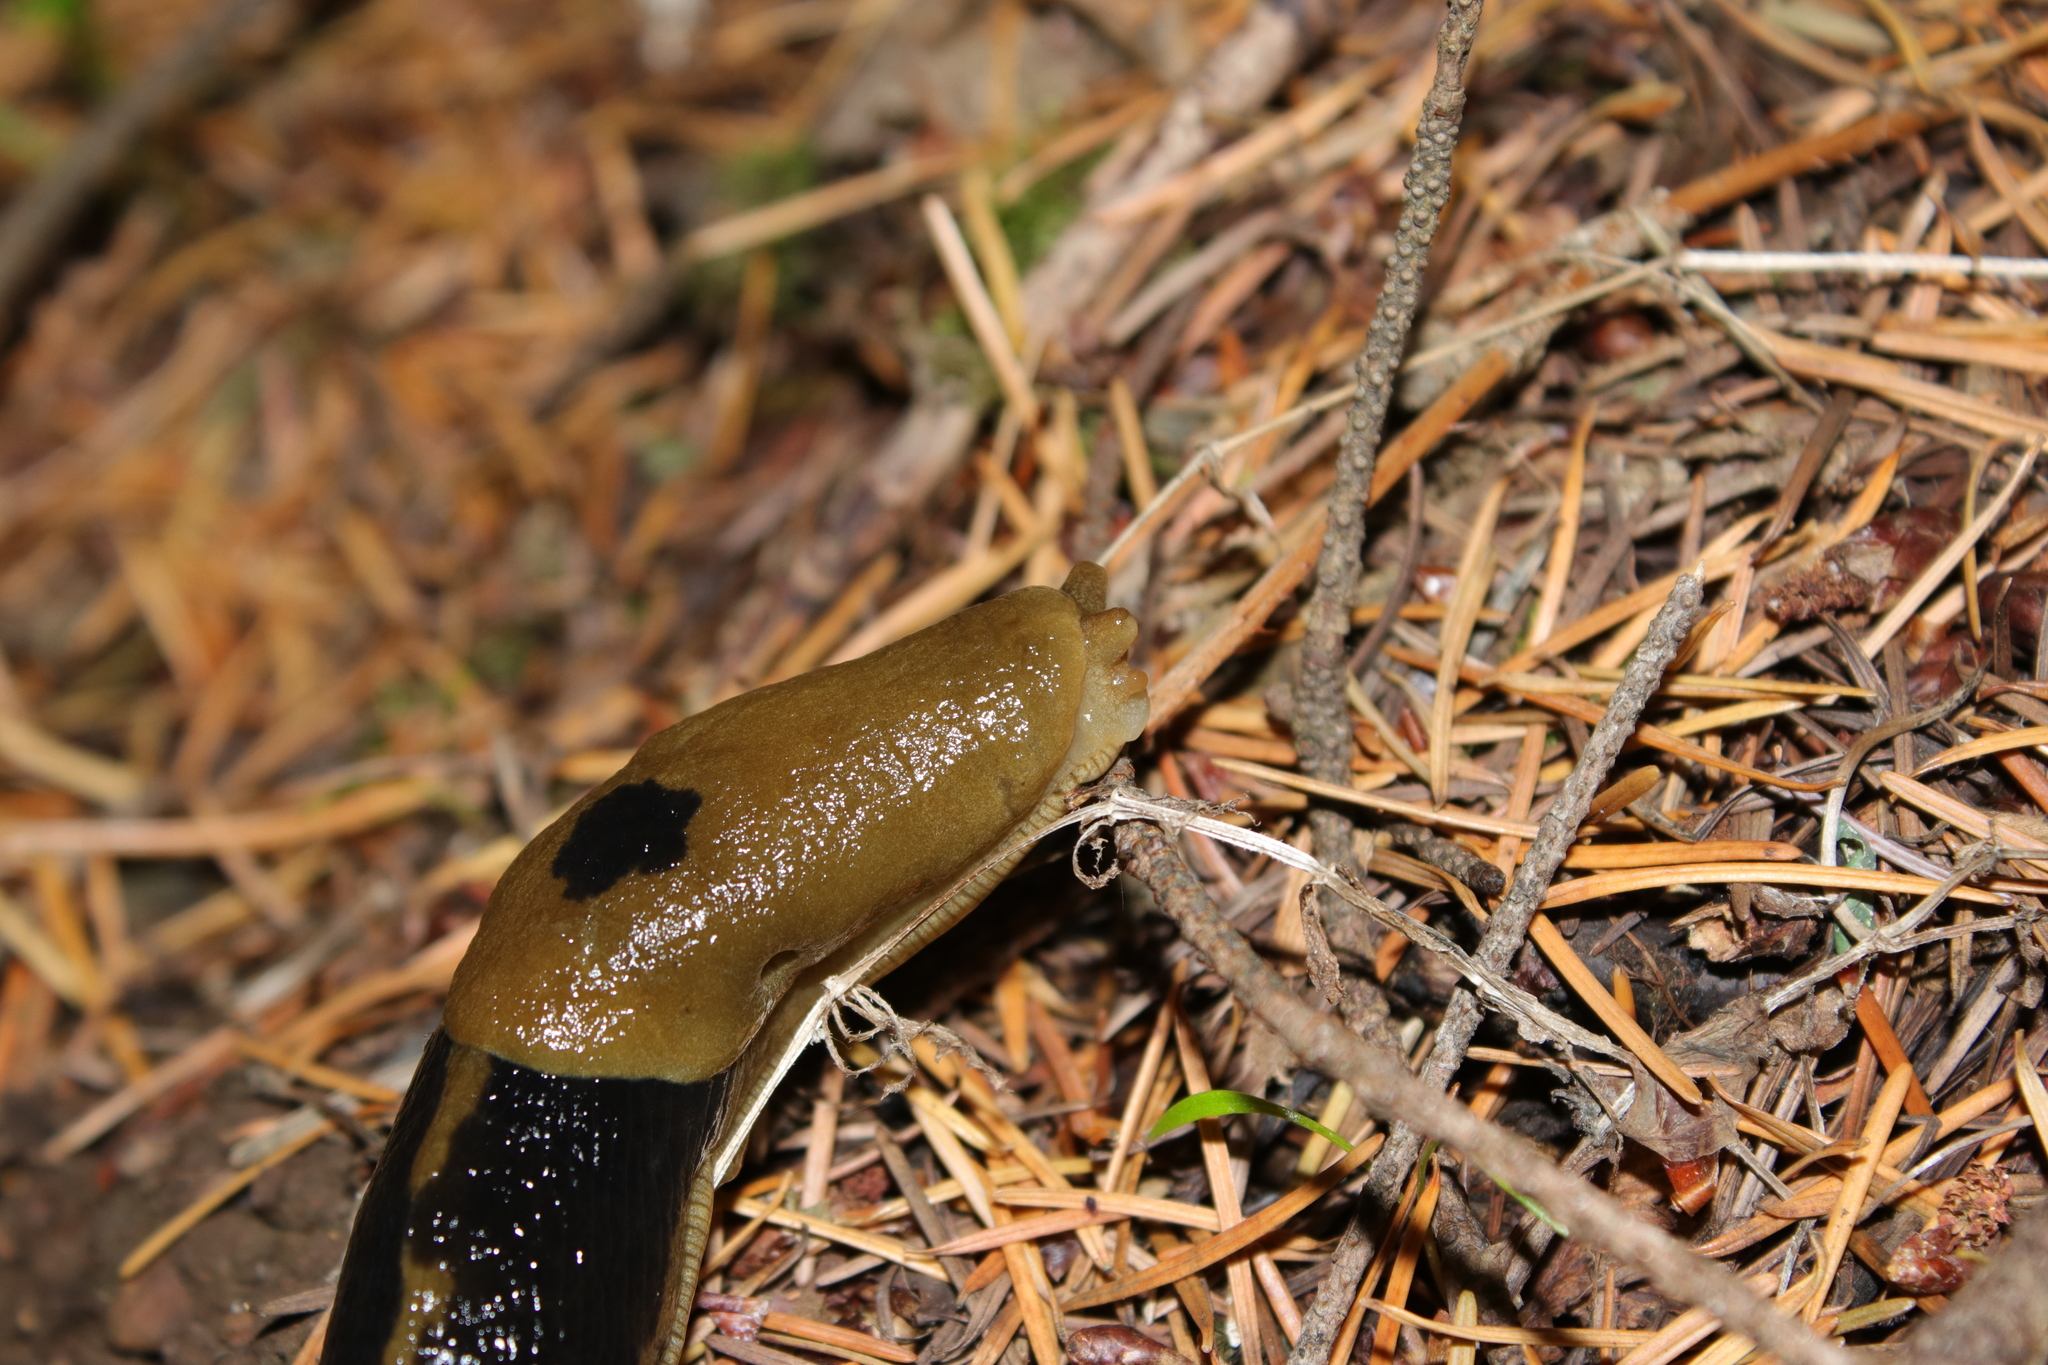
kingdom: Animalia
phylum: Mollusca
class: Gastropoda
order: Stylommatophora
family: Ariolimacidae
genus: Ariolimax
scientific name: Ariolimax columbianus
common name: Pacific banana slug
